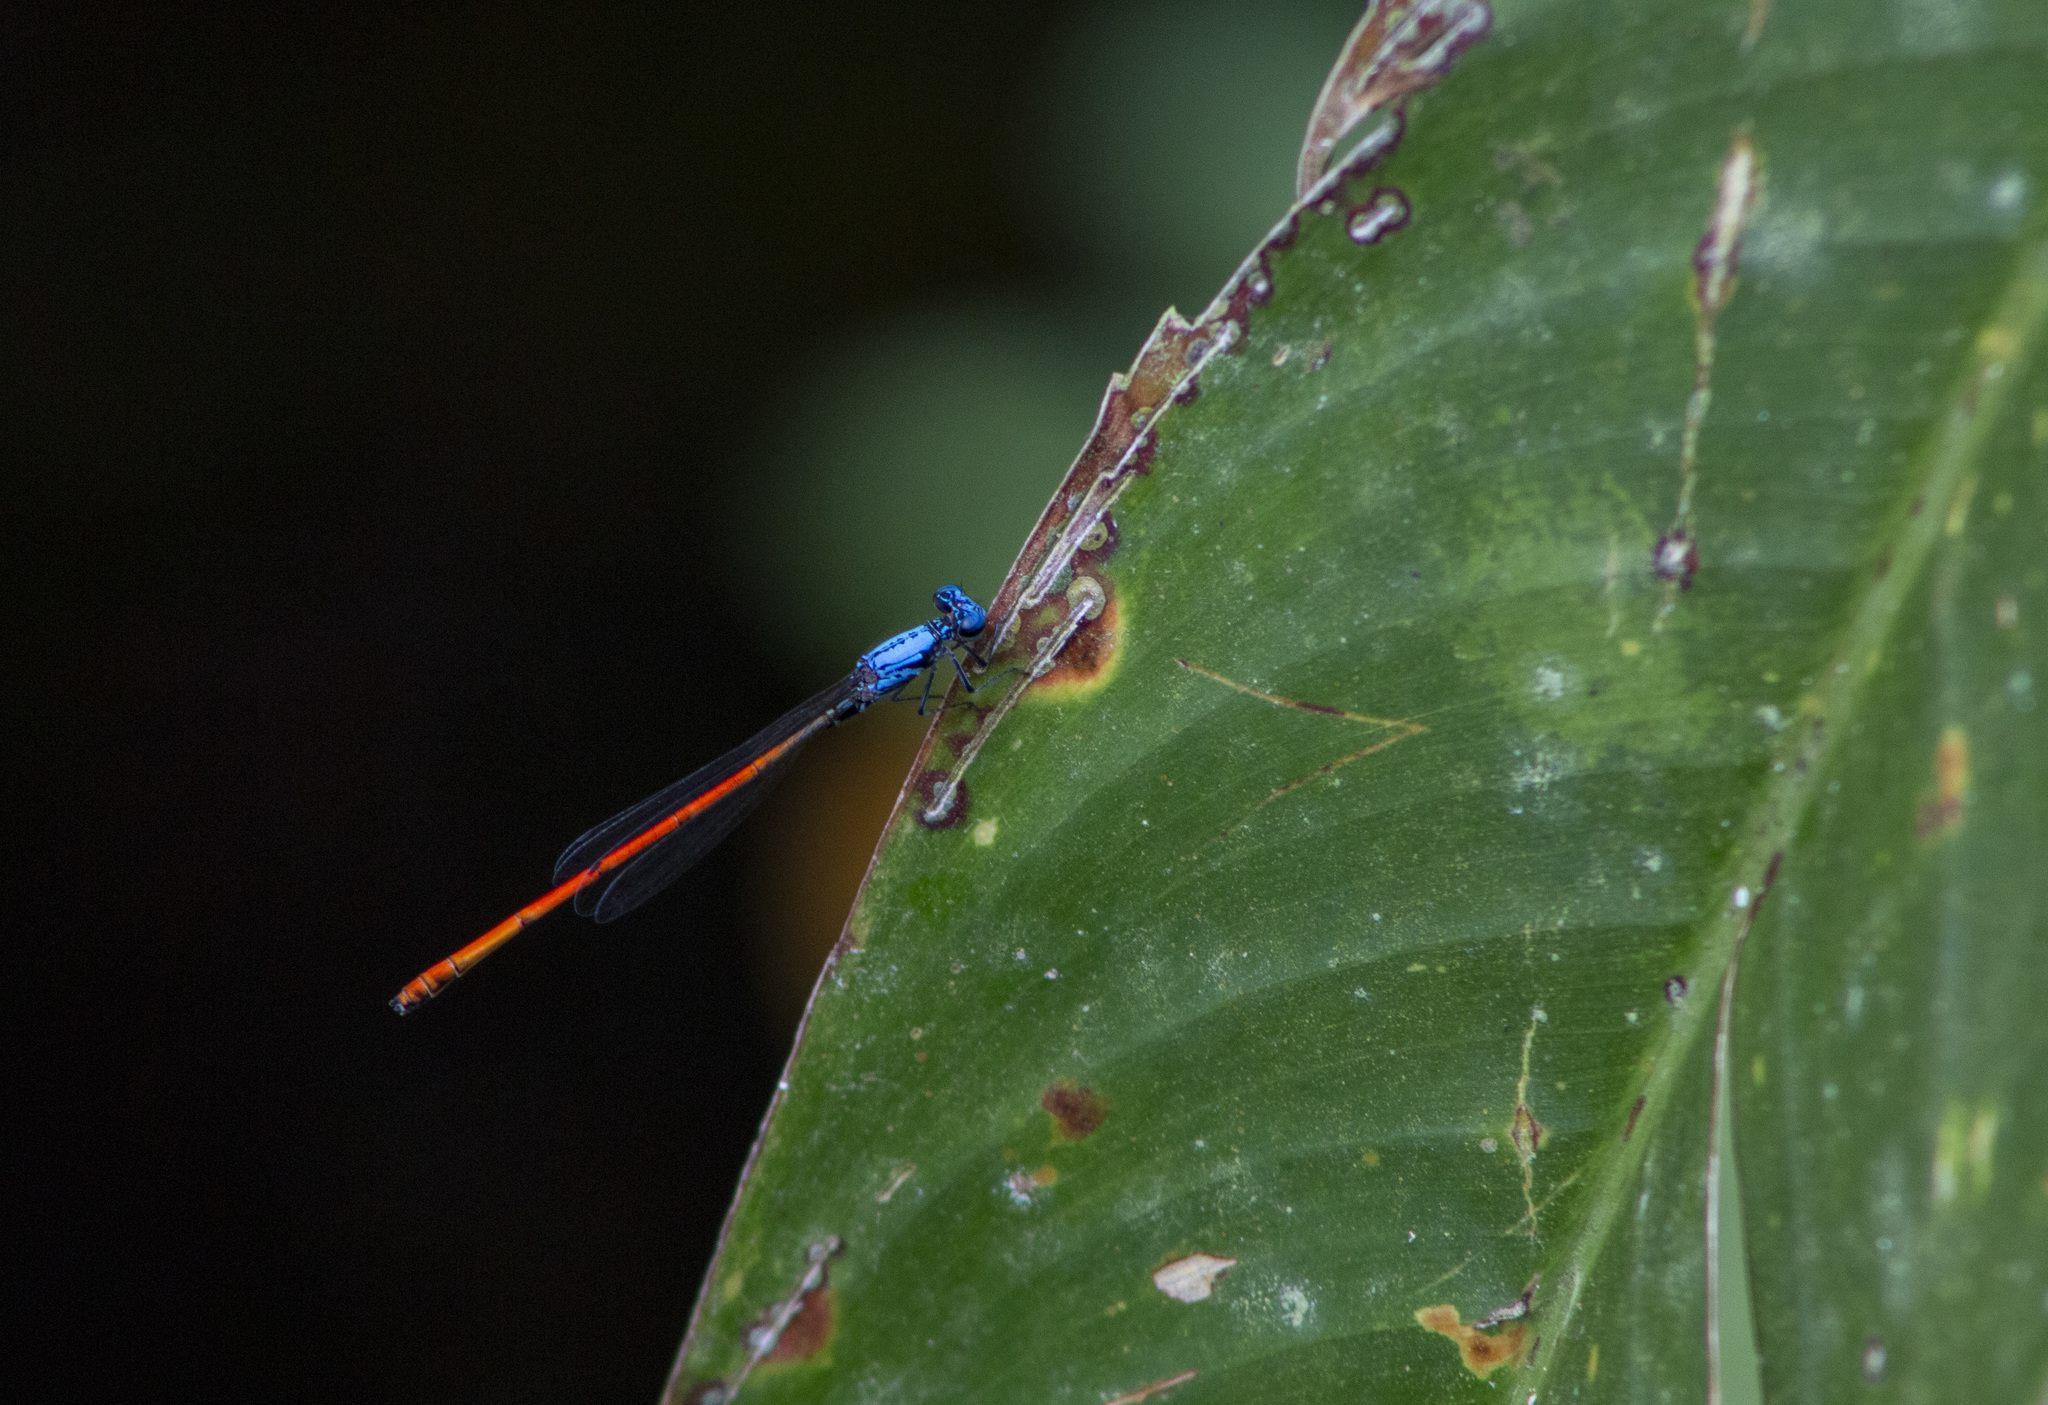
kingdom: Animalia
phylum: Arthropoda
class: Insecta
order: Odonata
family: Coenagrionidae
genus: Neoneura
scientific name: Neoneura sylvatica
